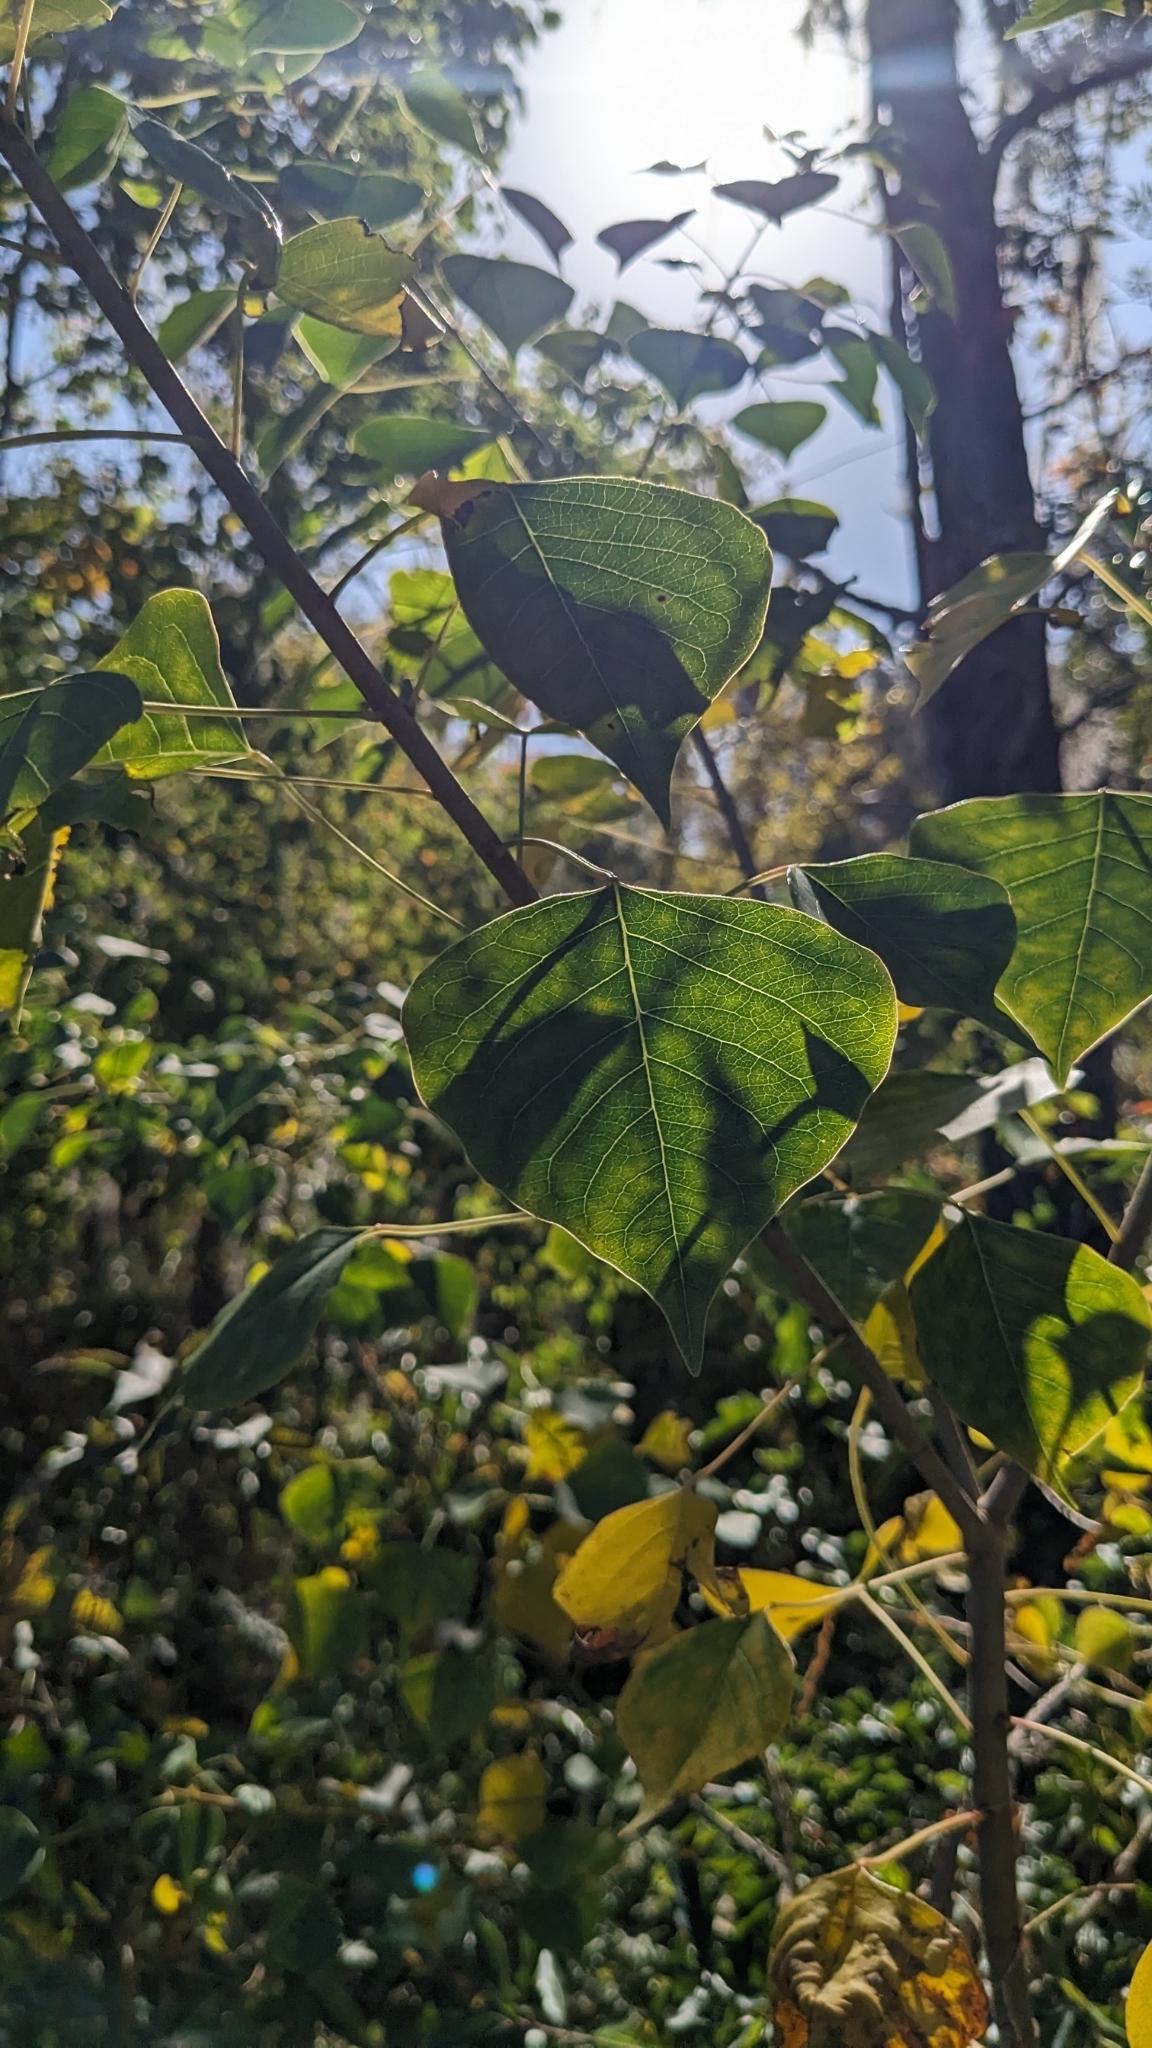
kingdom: Plantae
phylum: Tracheophyta
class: Magnoliopsida
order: Malpighiales
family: Euphorbiaceae
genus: Triadica
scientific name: Triadica sebifera
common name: Chinese tallow
